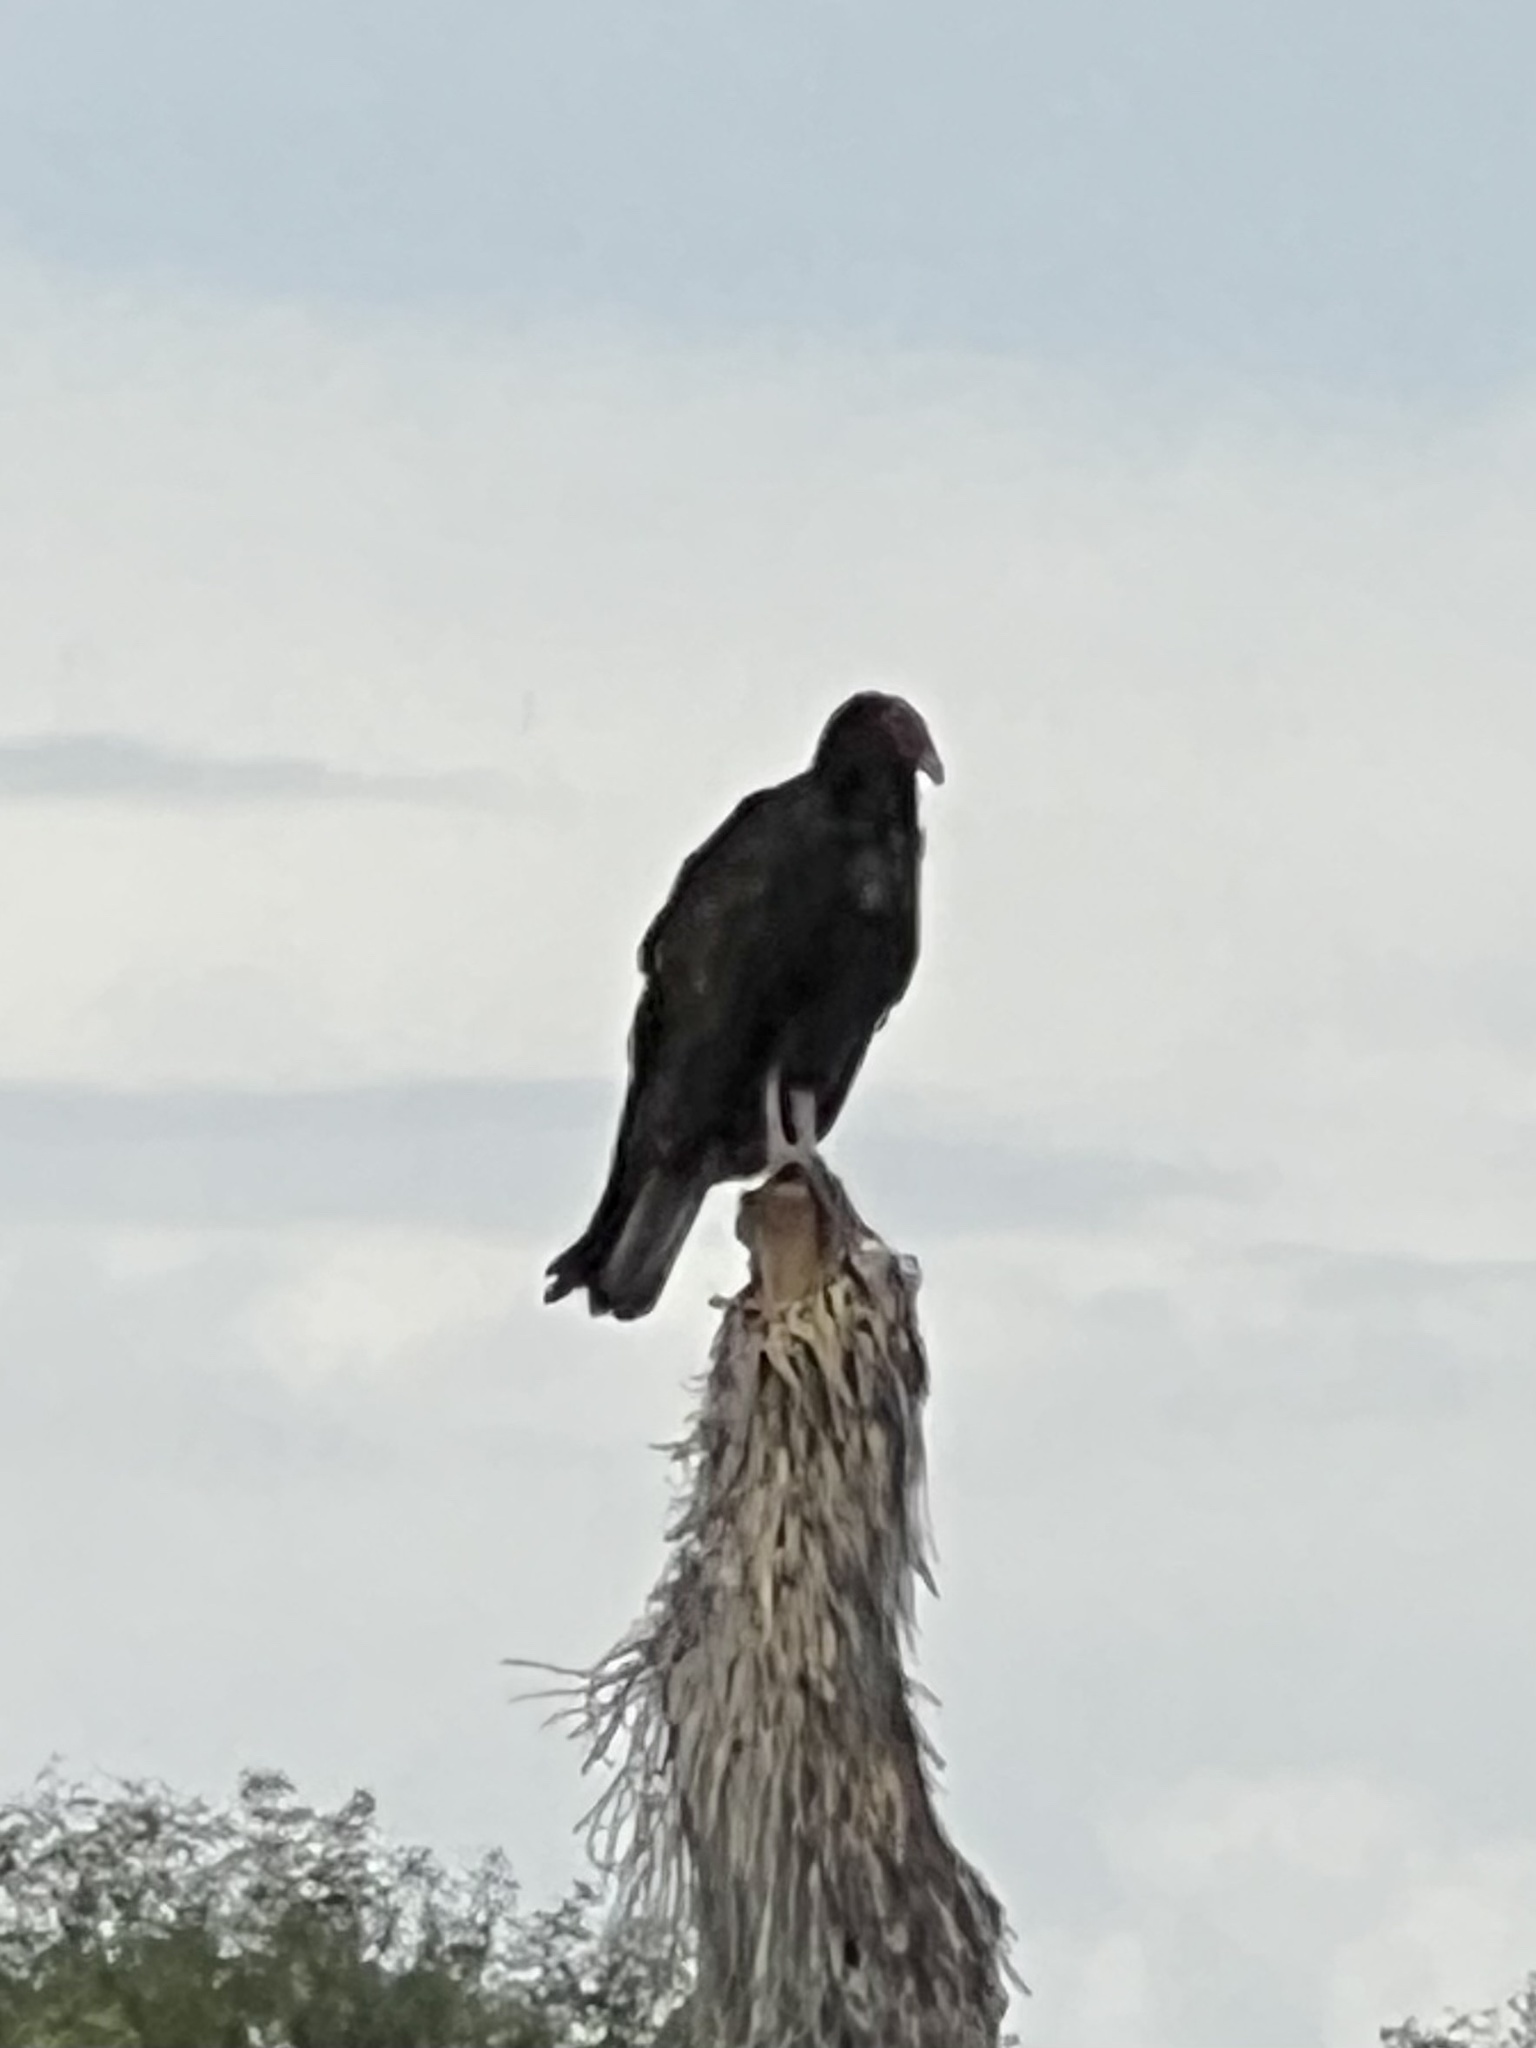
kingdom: Animalia
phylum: Chordata
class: Aves
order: Accipitriformes
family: Cathartidae
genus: Cathartes
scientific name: Cathartes aura
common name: Turkey vulture
